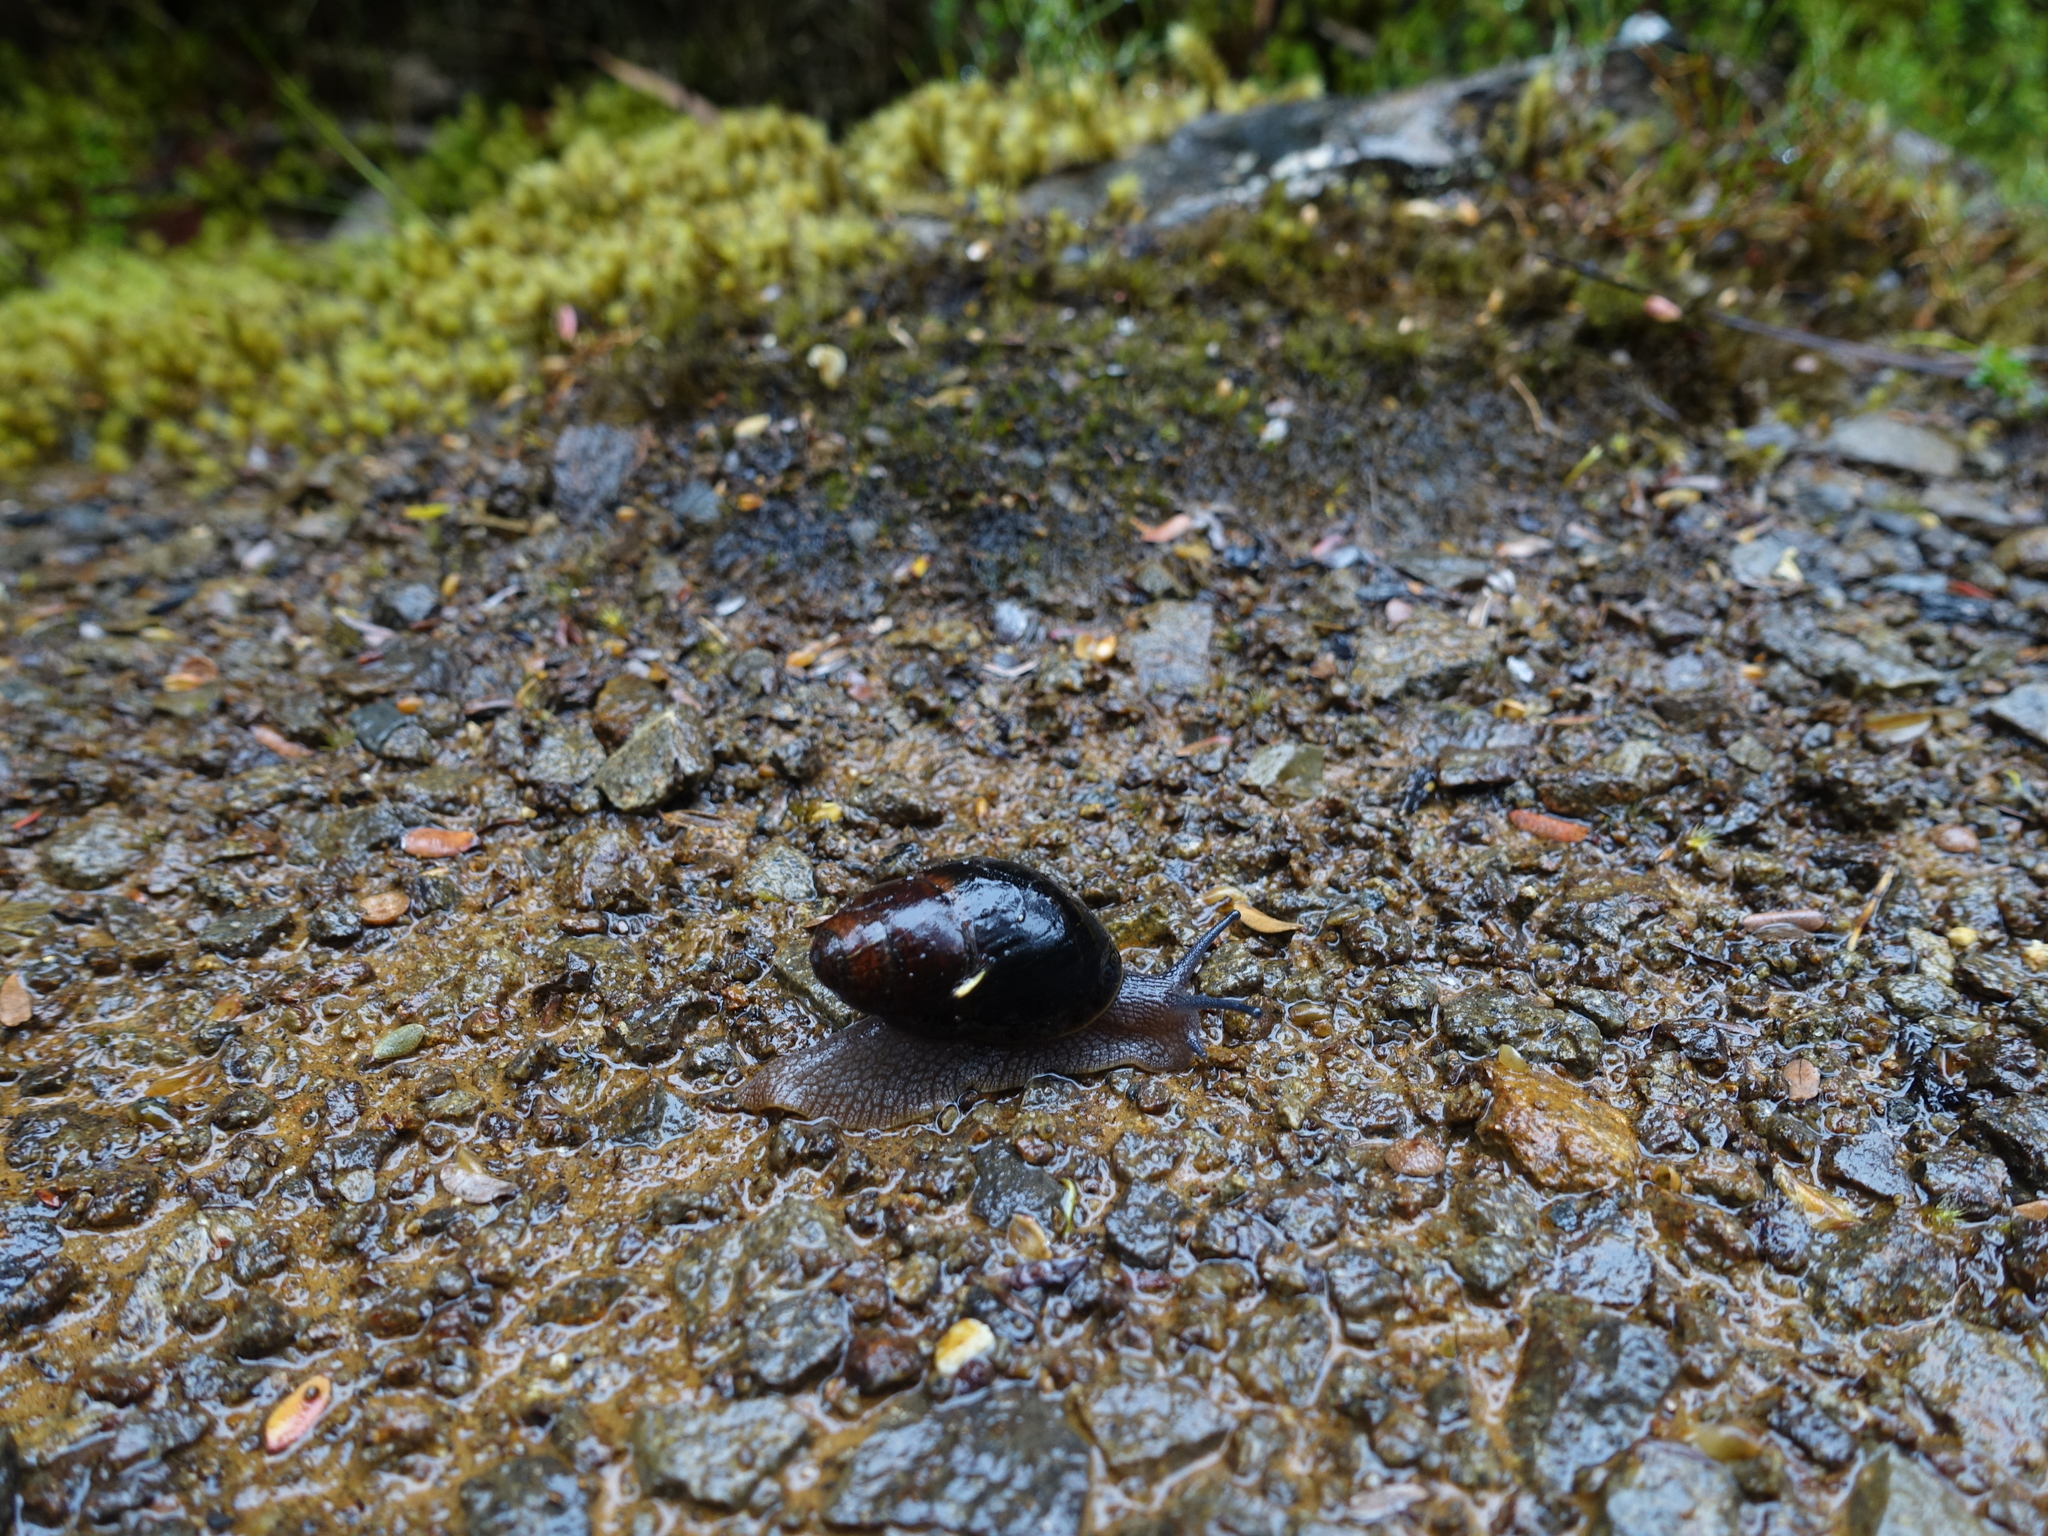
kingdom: Animalia
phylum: Mollusca
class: Gastropoda
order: Stylommatophora
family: Caryodidae
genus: Caryodes
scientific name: Caryodes dufresnii
